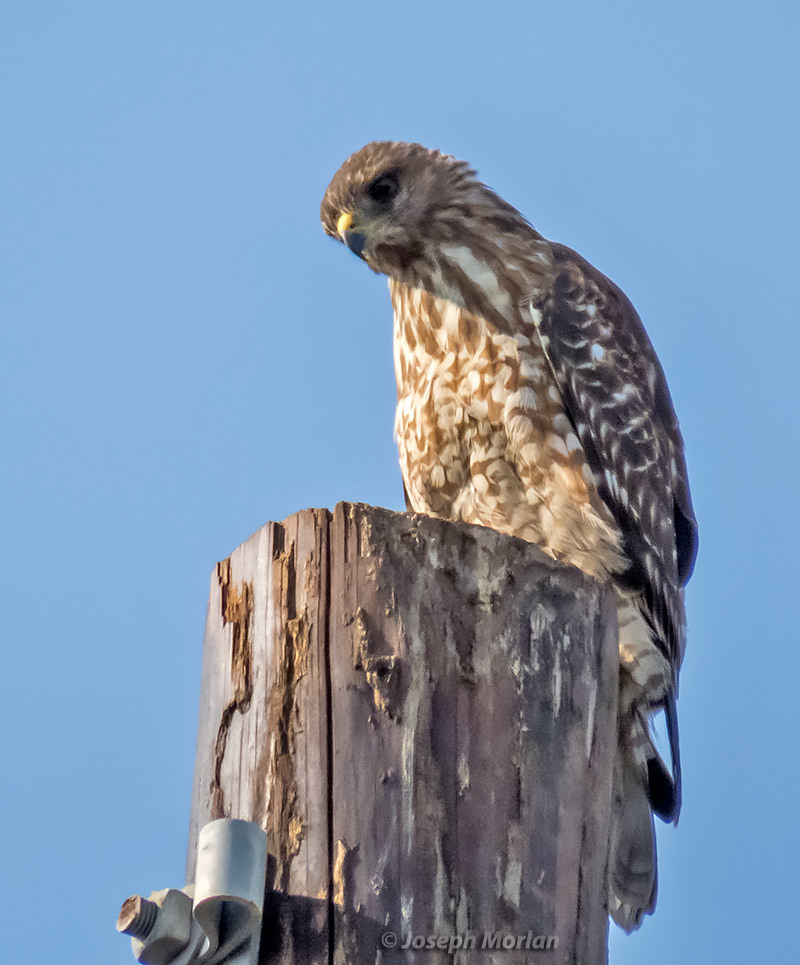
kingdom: Animalia
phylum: Chordata
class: Aves
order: Accipitriformes
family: Accipitridae
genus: Buteo
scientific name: Buteo lineatus
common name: Red-shouldered hawk
